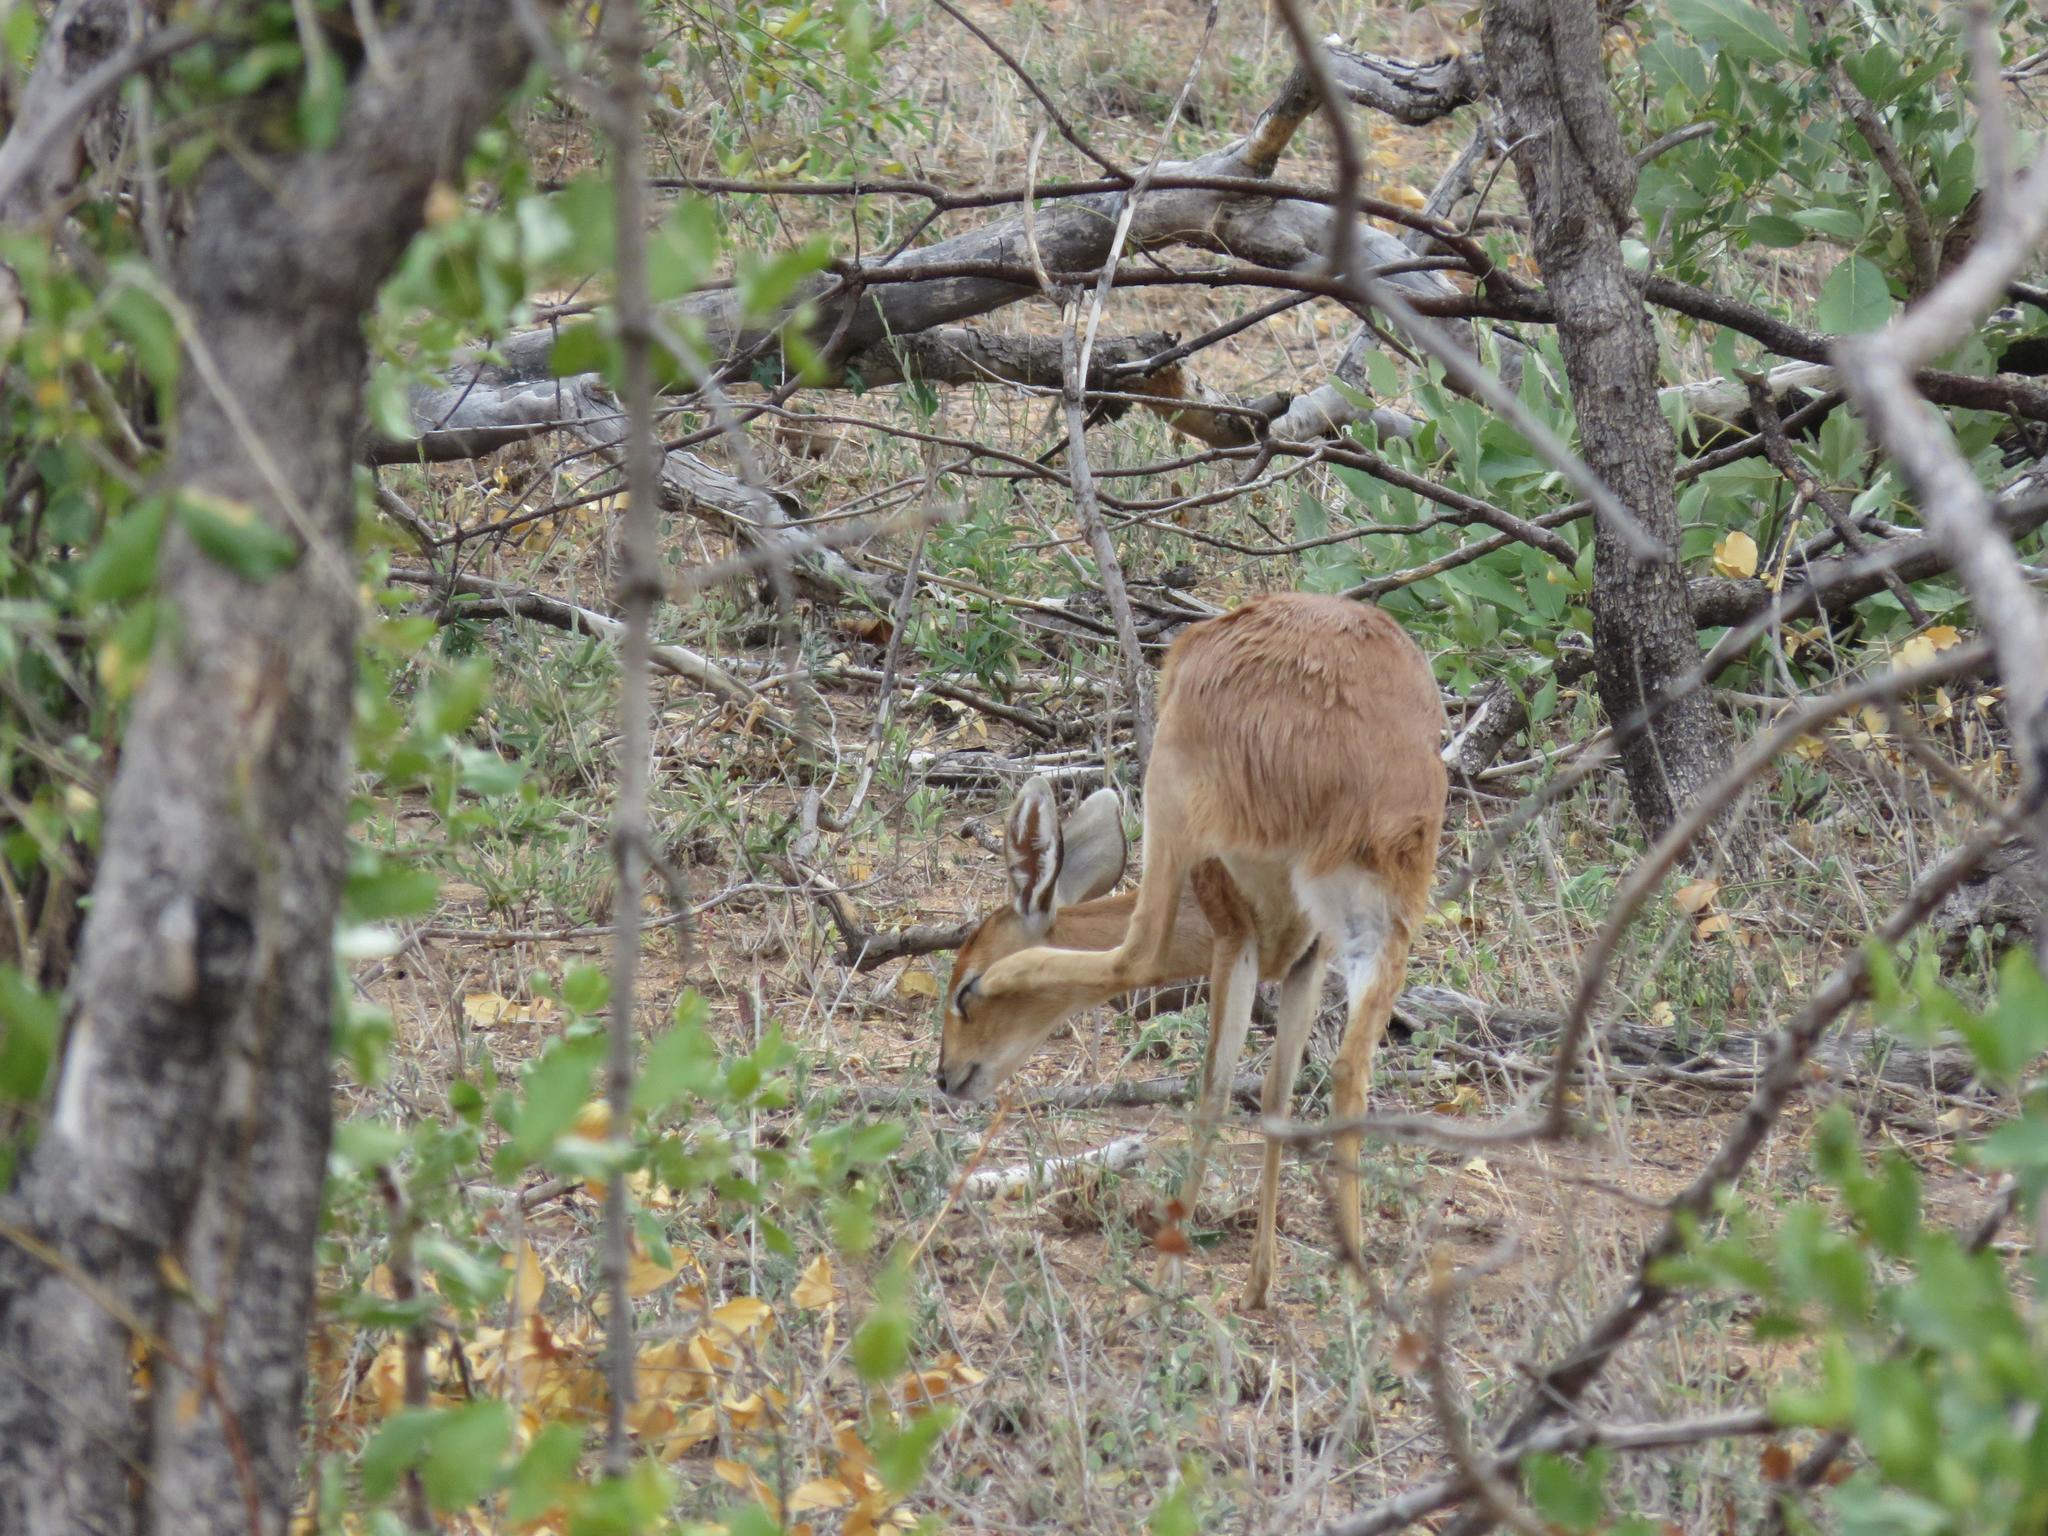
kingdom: Animalia
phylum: Chordata
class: Mammalia
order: Artiodactyla
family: Bovidae
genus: Raphicerus
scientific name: Raphicerus campestris
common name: Steenbok
